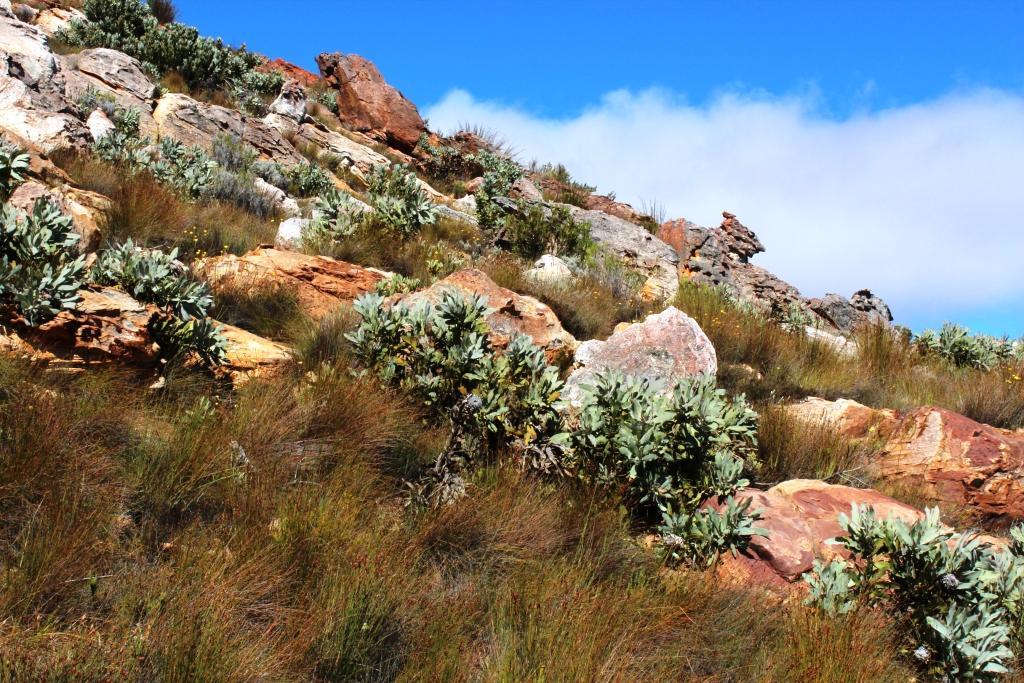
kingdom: Plantae
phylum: Tracheophyta
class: Magnoliopsida
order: Proteales
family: Proteaceae
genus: Protea
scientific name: Protea magnifica
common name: Bearded sugarbush
